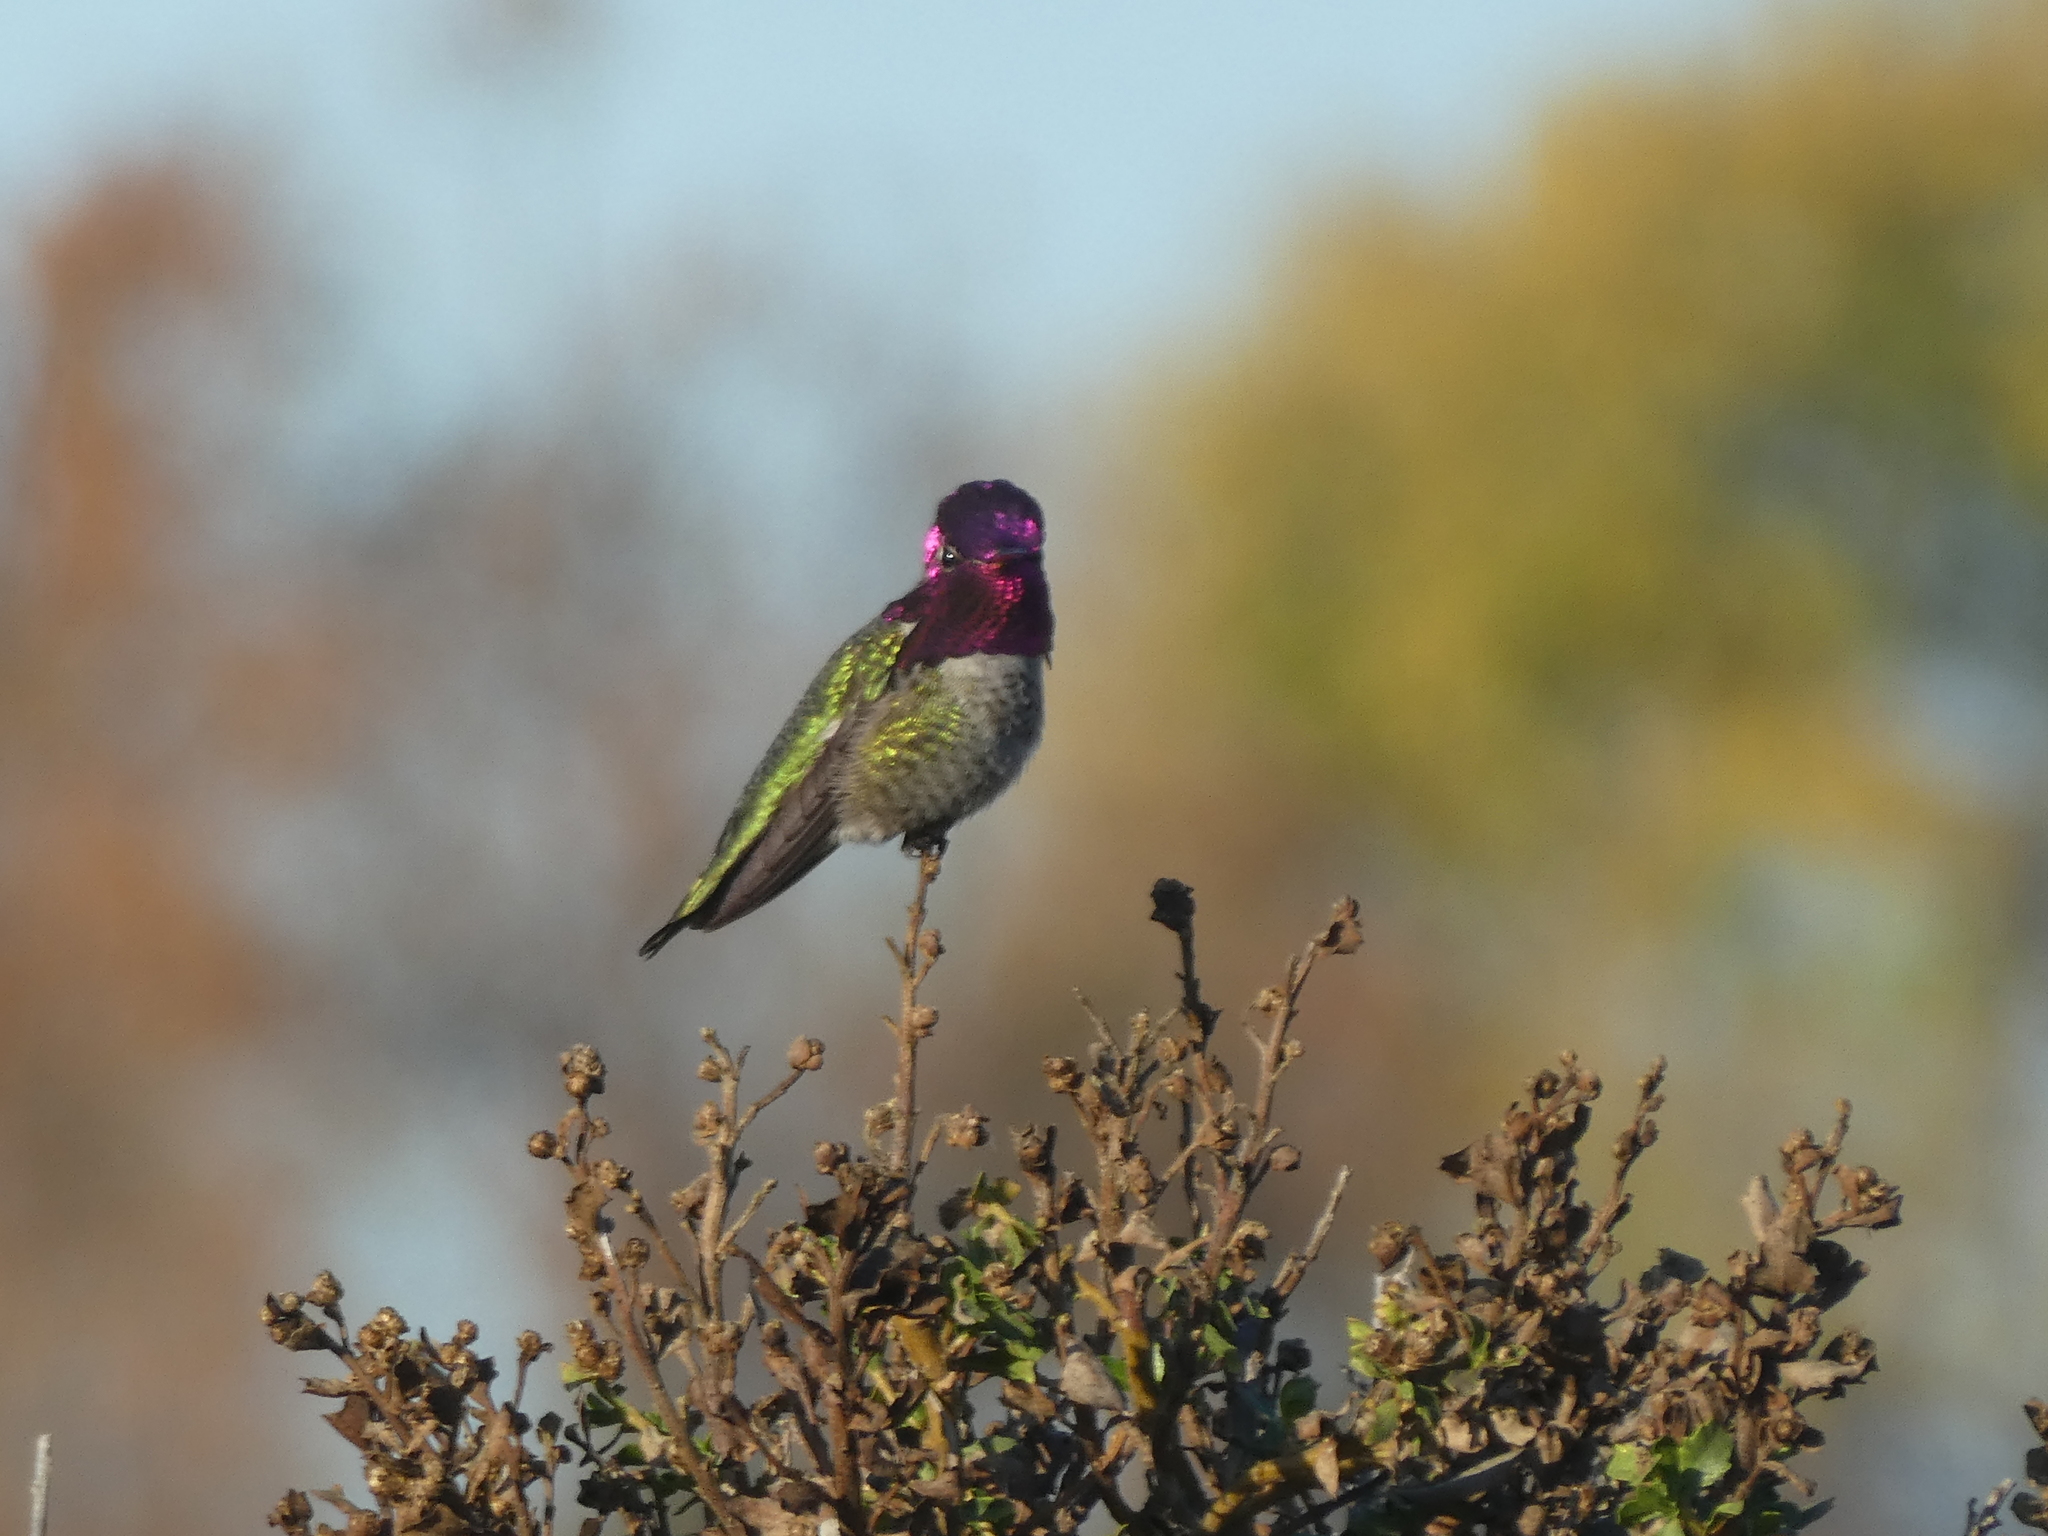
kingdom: Animalia
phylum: Chordata
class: Aves
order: Apodiformes
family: Trochilidae
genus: Calypte
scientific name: Calypte anna
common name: Anna's hummingbird
